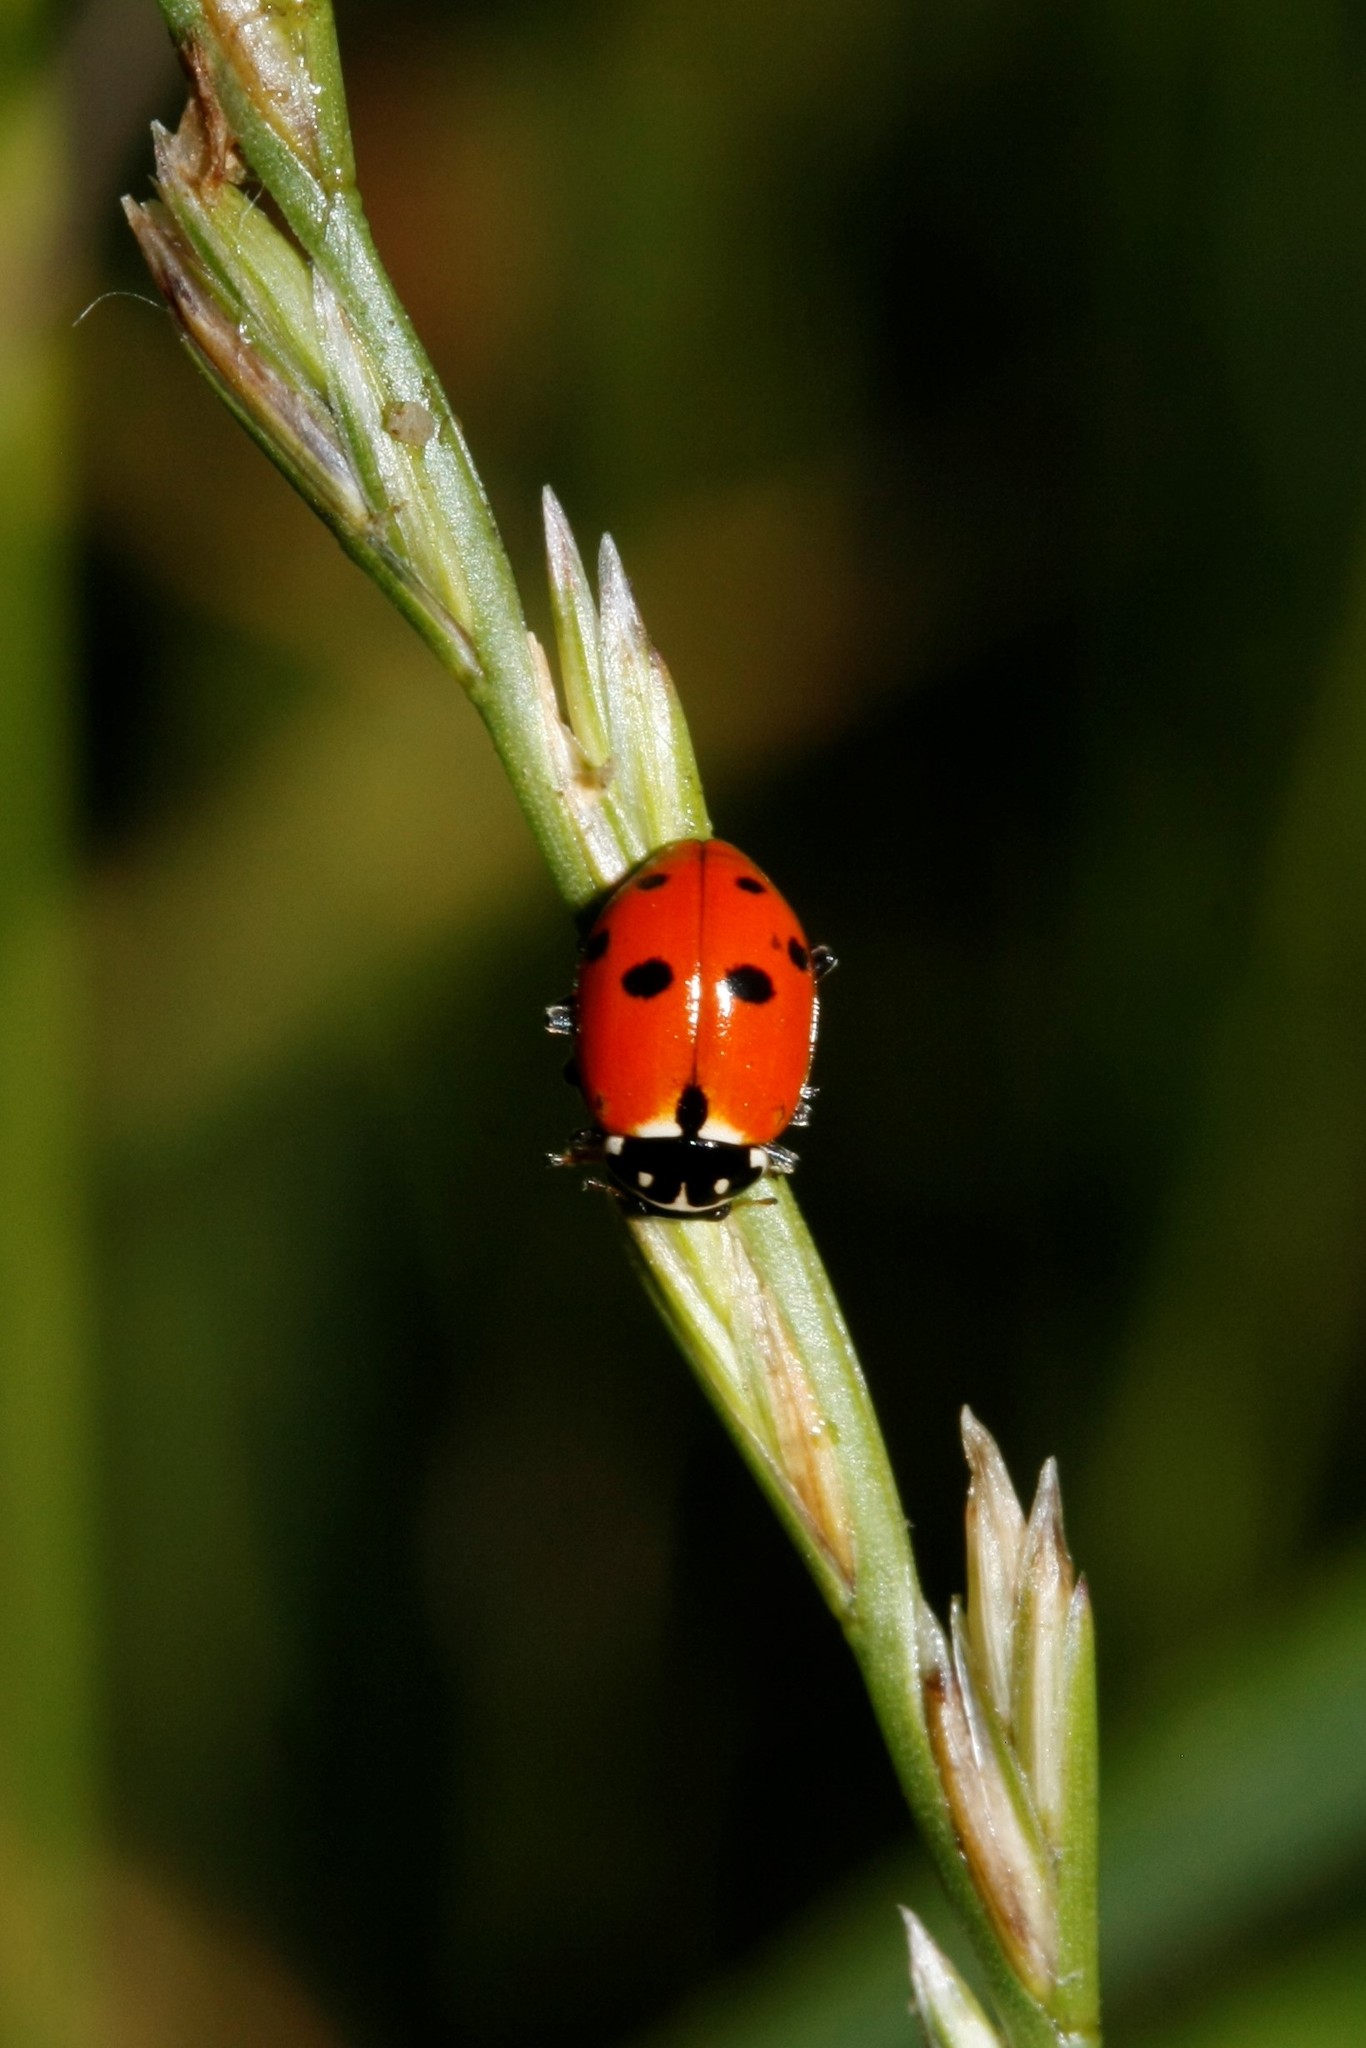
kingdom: Animalia
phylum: Arthropoda
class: Insecta
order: Coleoptera
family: Coccinellidae
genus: Hippodamia
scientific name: Hippodamia variegata
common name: Ladybird beetle
